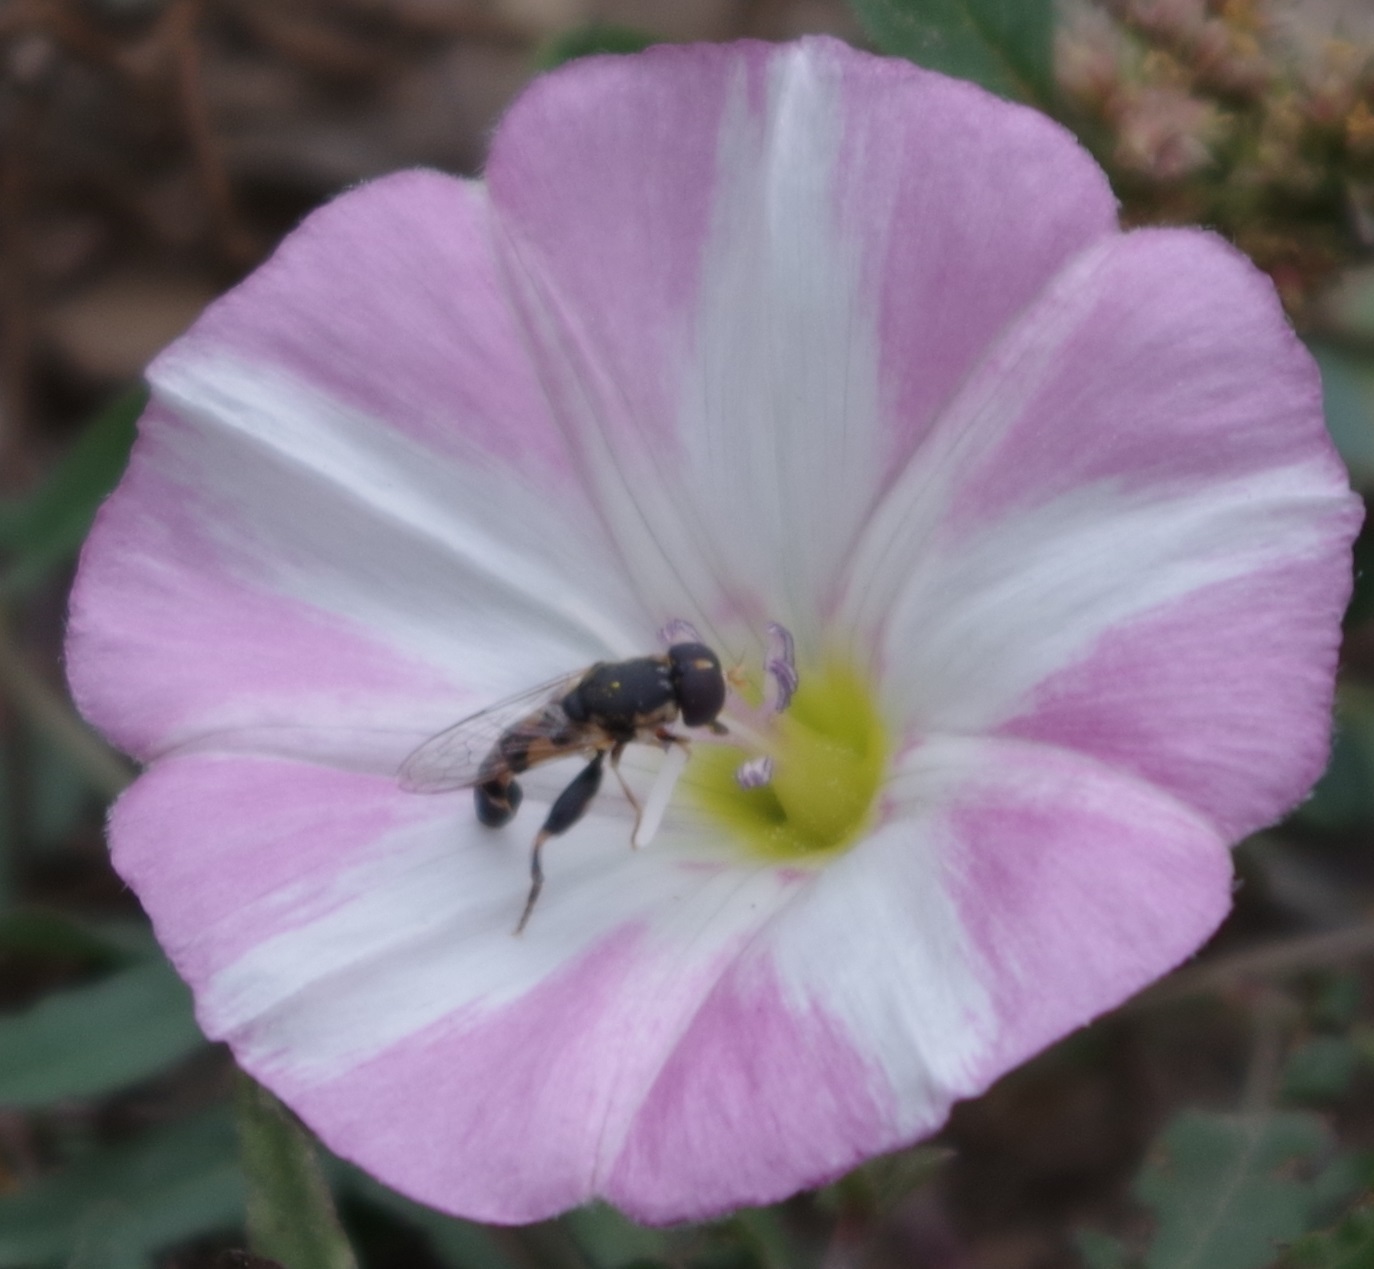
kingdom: Animalia
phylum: Arthropoda
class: Insecta
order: Diptera
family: Syrphidae
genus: Syritta
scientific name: Syritta pipiens
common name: Hover fly
